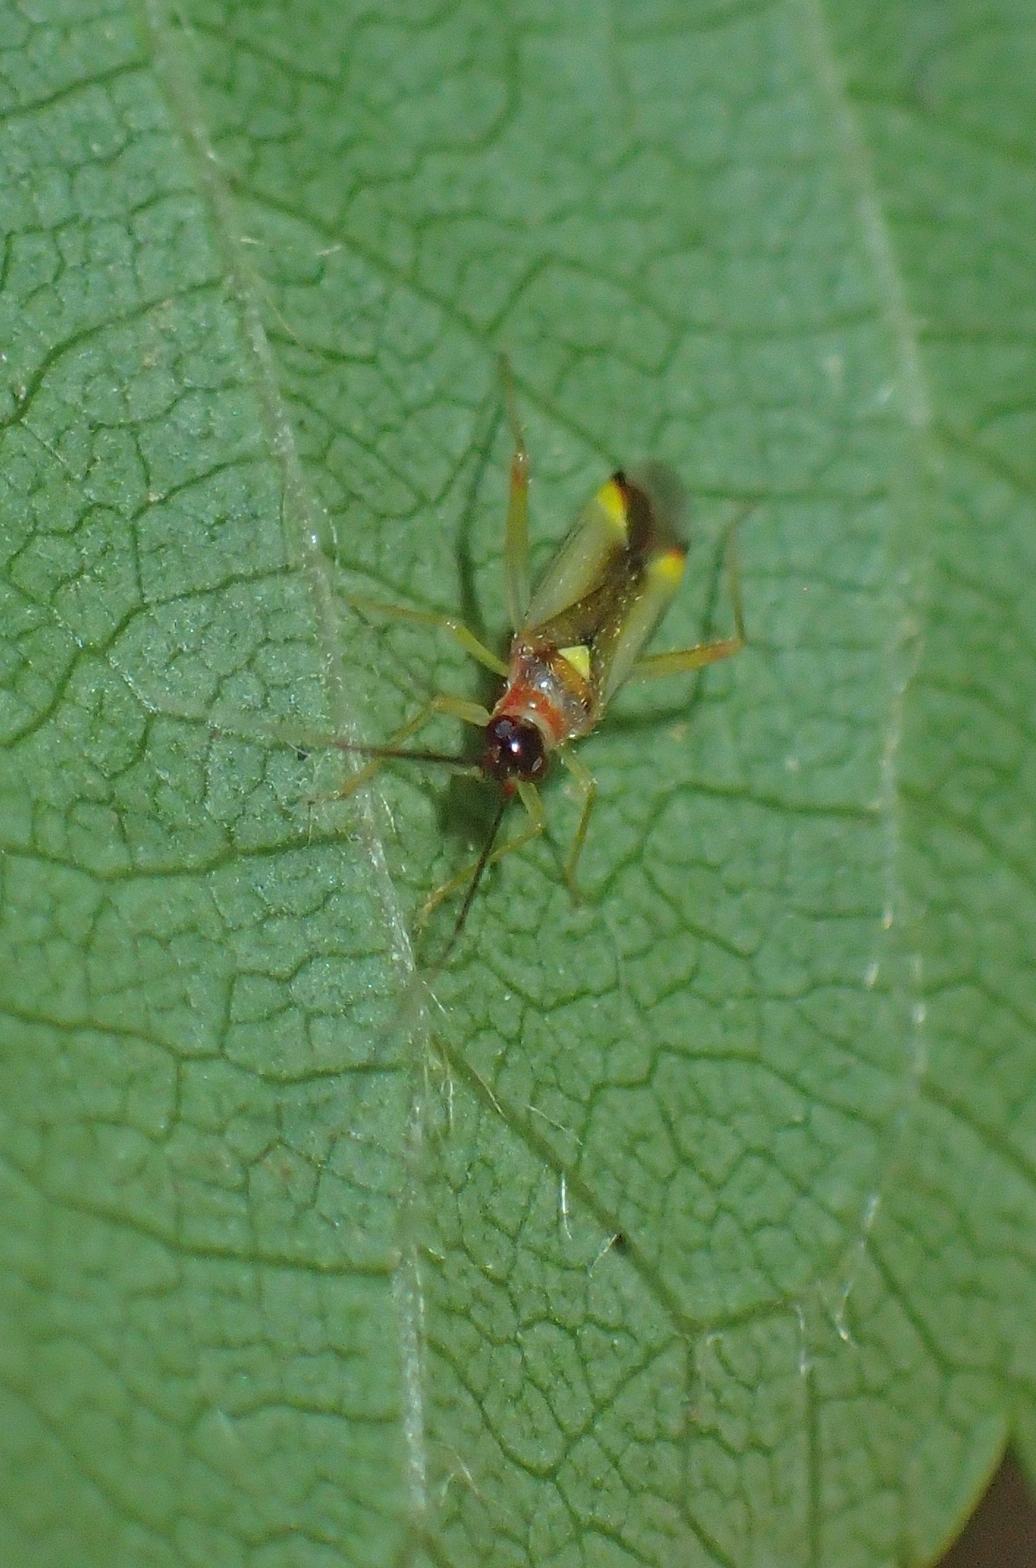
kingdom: Animalia
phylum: Arthropoda
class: Insecta
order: Hemiptera
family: Miridae
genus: Campyloneura
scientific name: Campyloneura virgula
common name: Predatory bug
